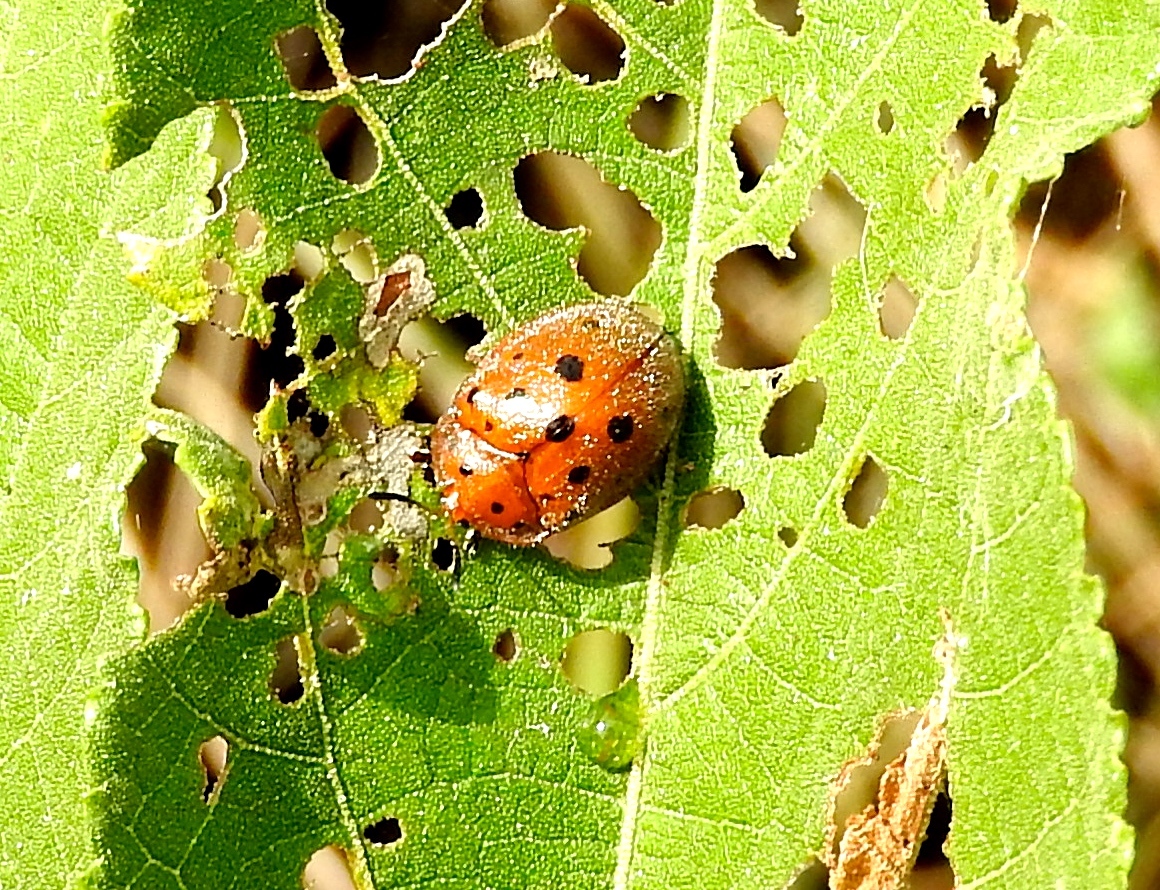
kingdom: Animalia
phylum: Arthropoda
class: Insecta
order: Coleoptera
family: Chrysomelidae
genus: Chelymorpha
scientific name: Chelymorpha
